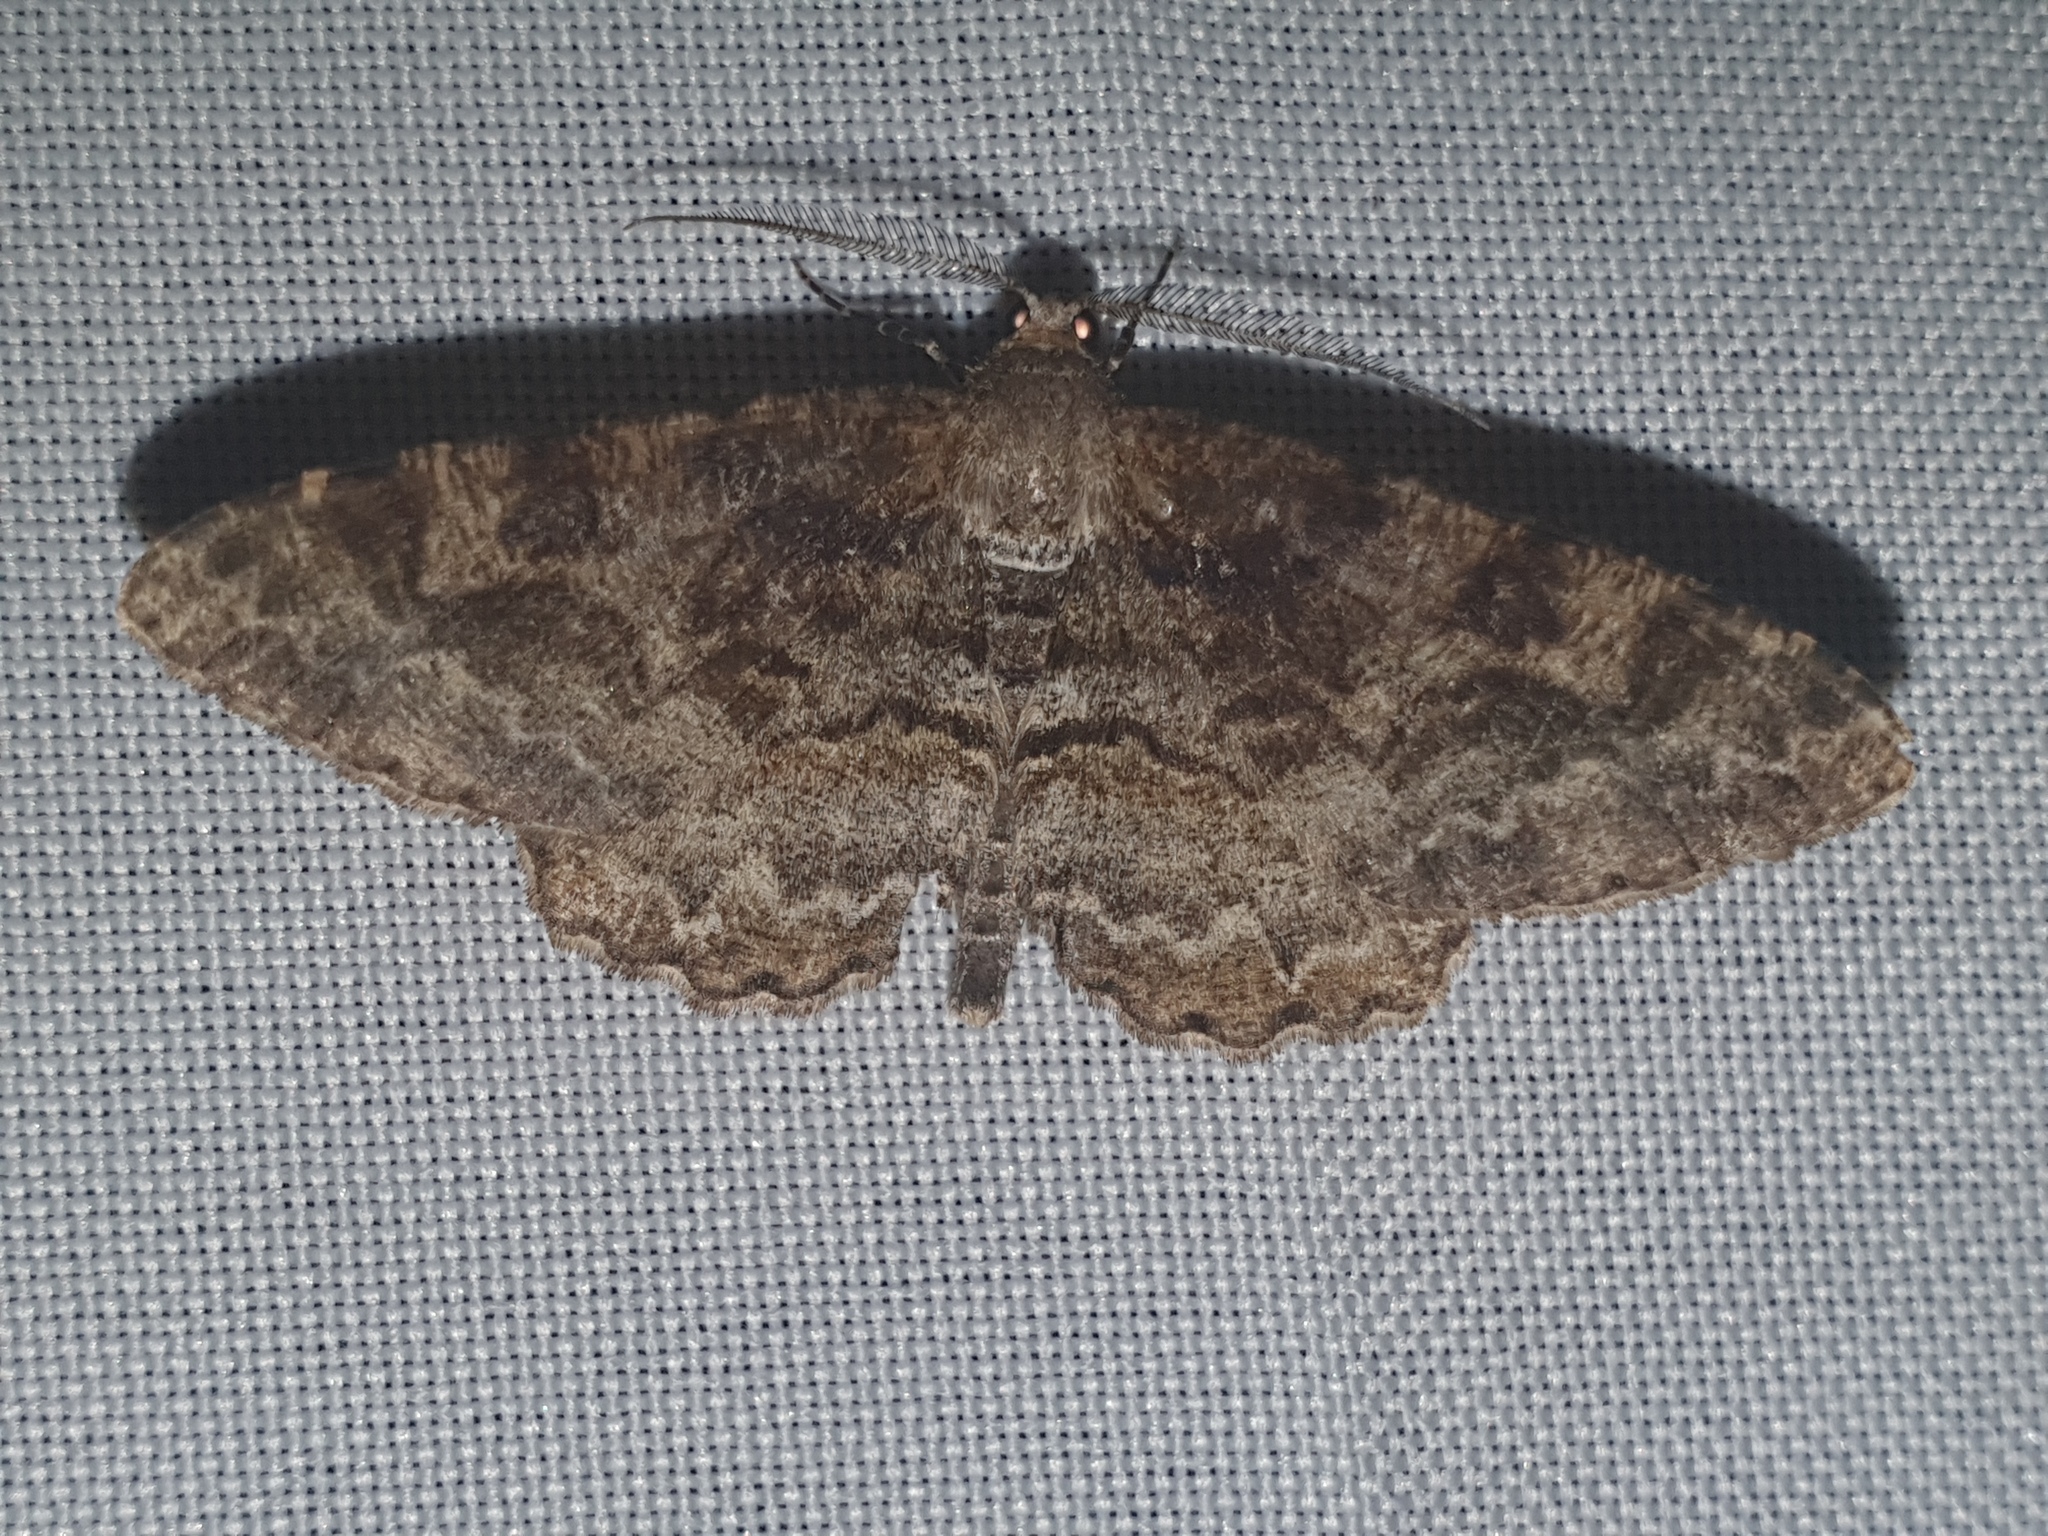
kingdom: Animalia
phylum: Arthropoda
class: Insecta
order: Lepidoptera
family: Geometridae
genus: Alcis
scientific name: Alcis repandata
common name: Mottled beauty
